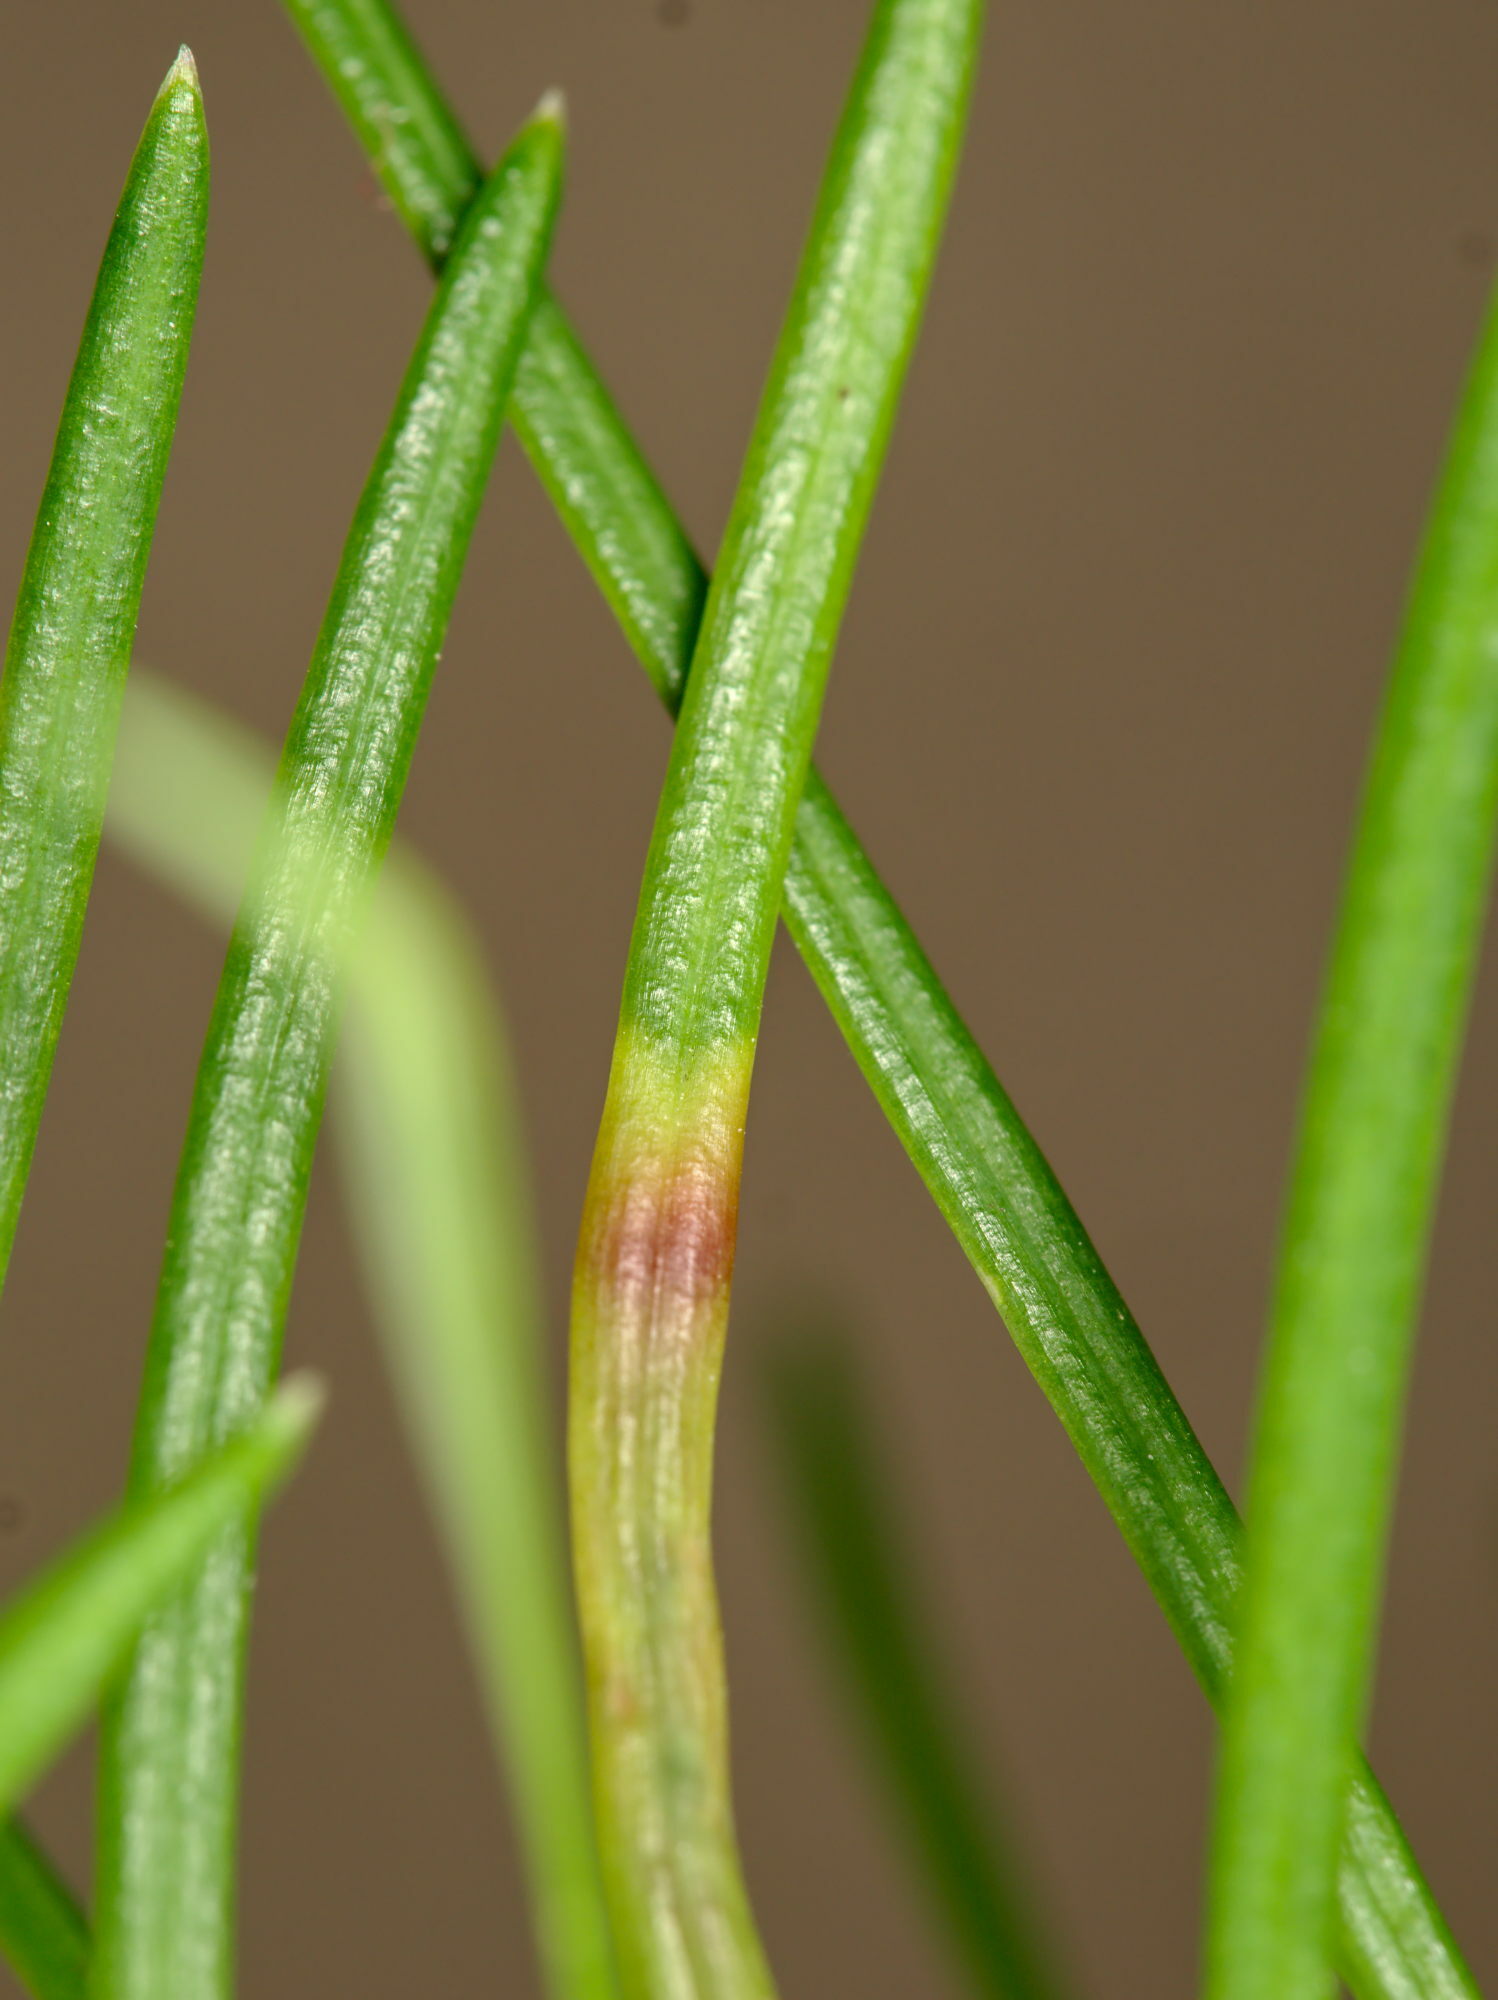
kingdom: Animalia
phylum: Arthropoda
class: Insecta
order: Diptera
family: Cecidomyiidae
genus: Contarinia
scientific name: Contarinia pseudotsugae
